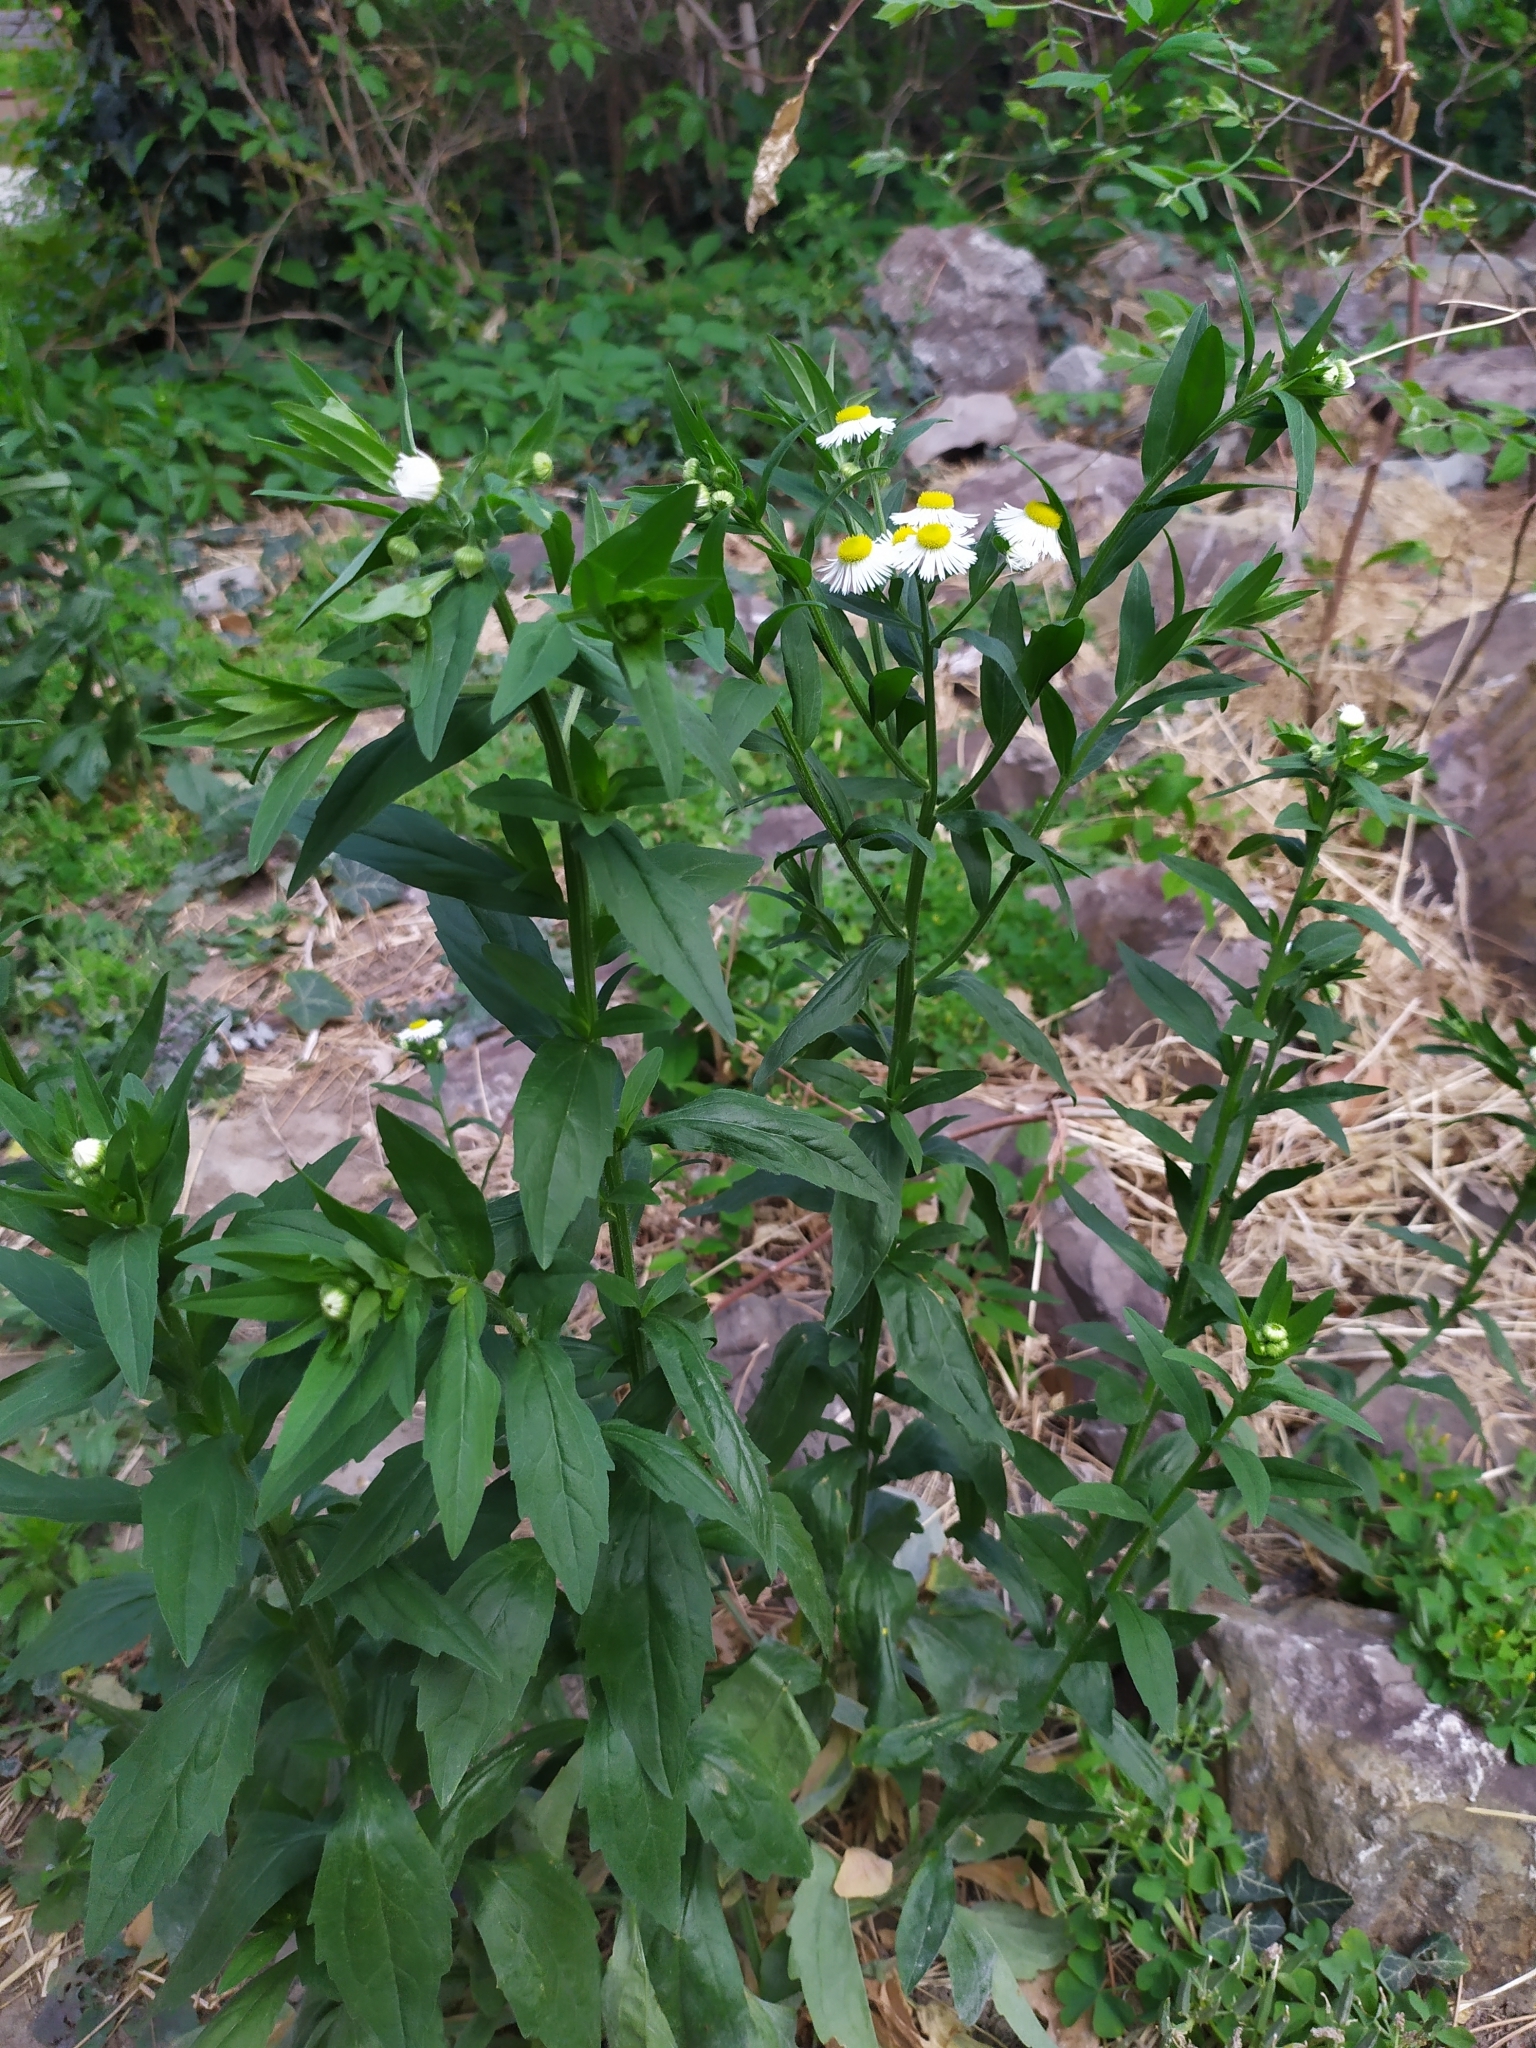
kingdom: Plantae
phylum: Tracheophyta
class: Magnoliopsida
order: Asterales
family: Asteraceae
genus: Erigeron
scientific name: Erigeron annuus
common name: Tall fleabane
